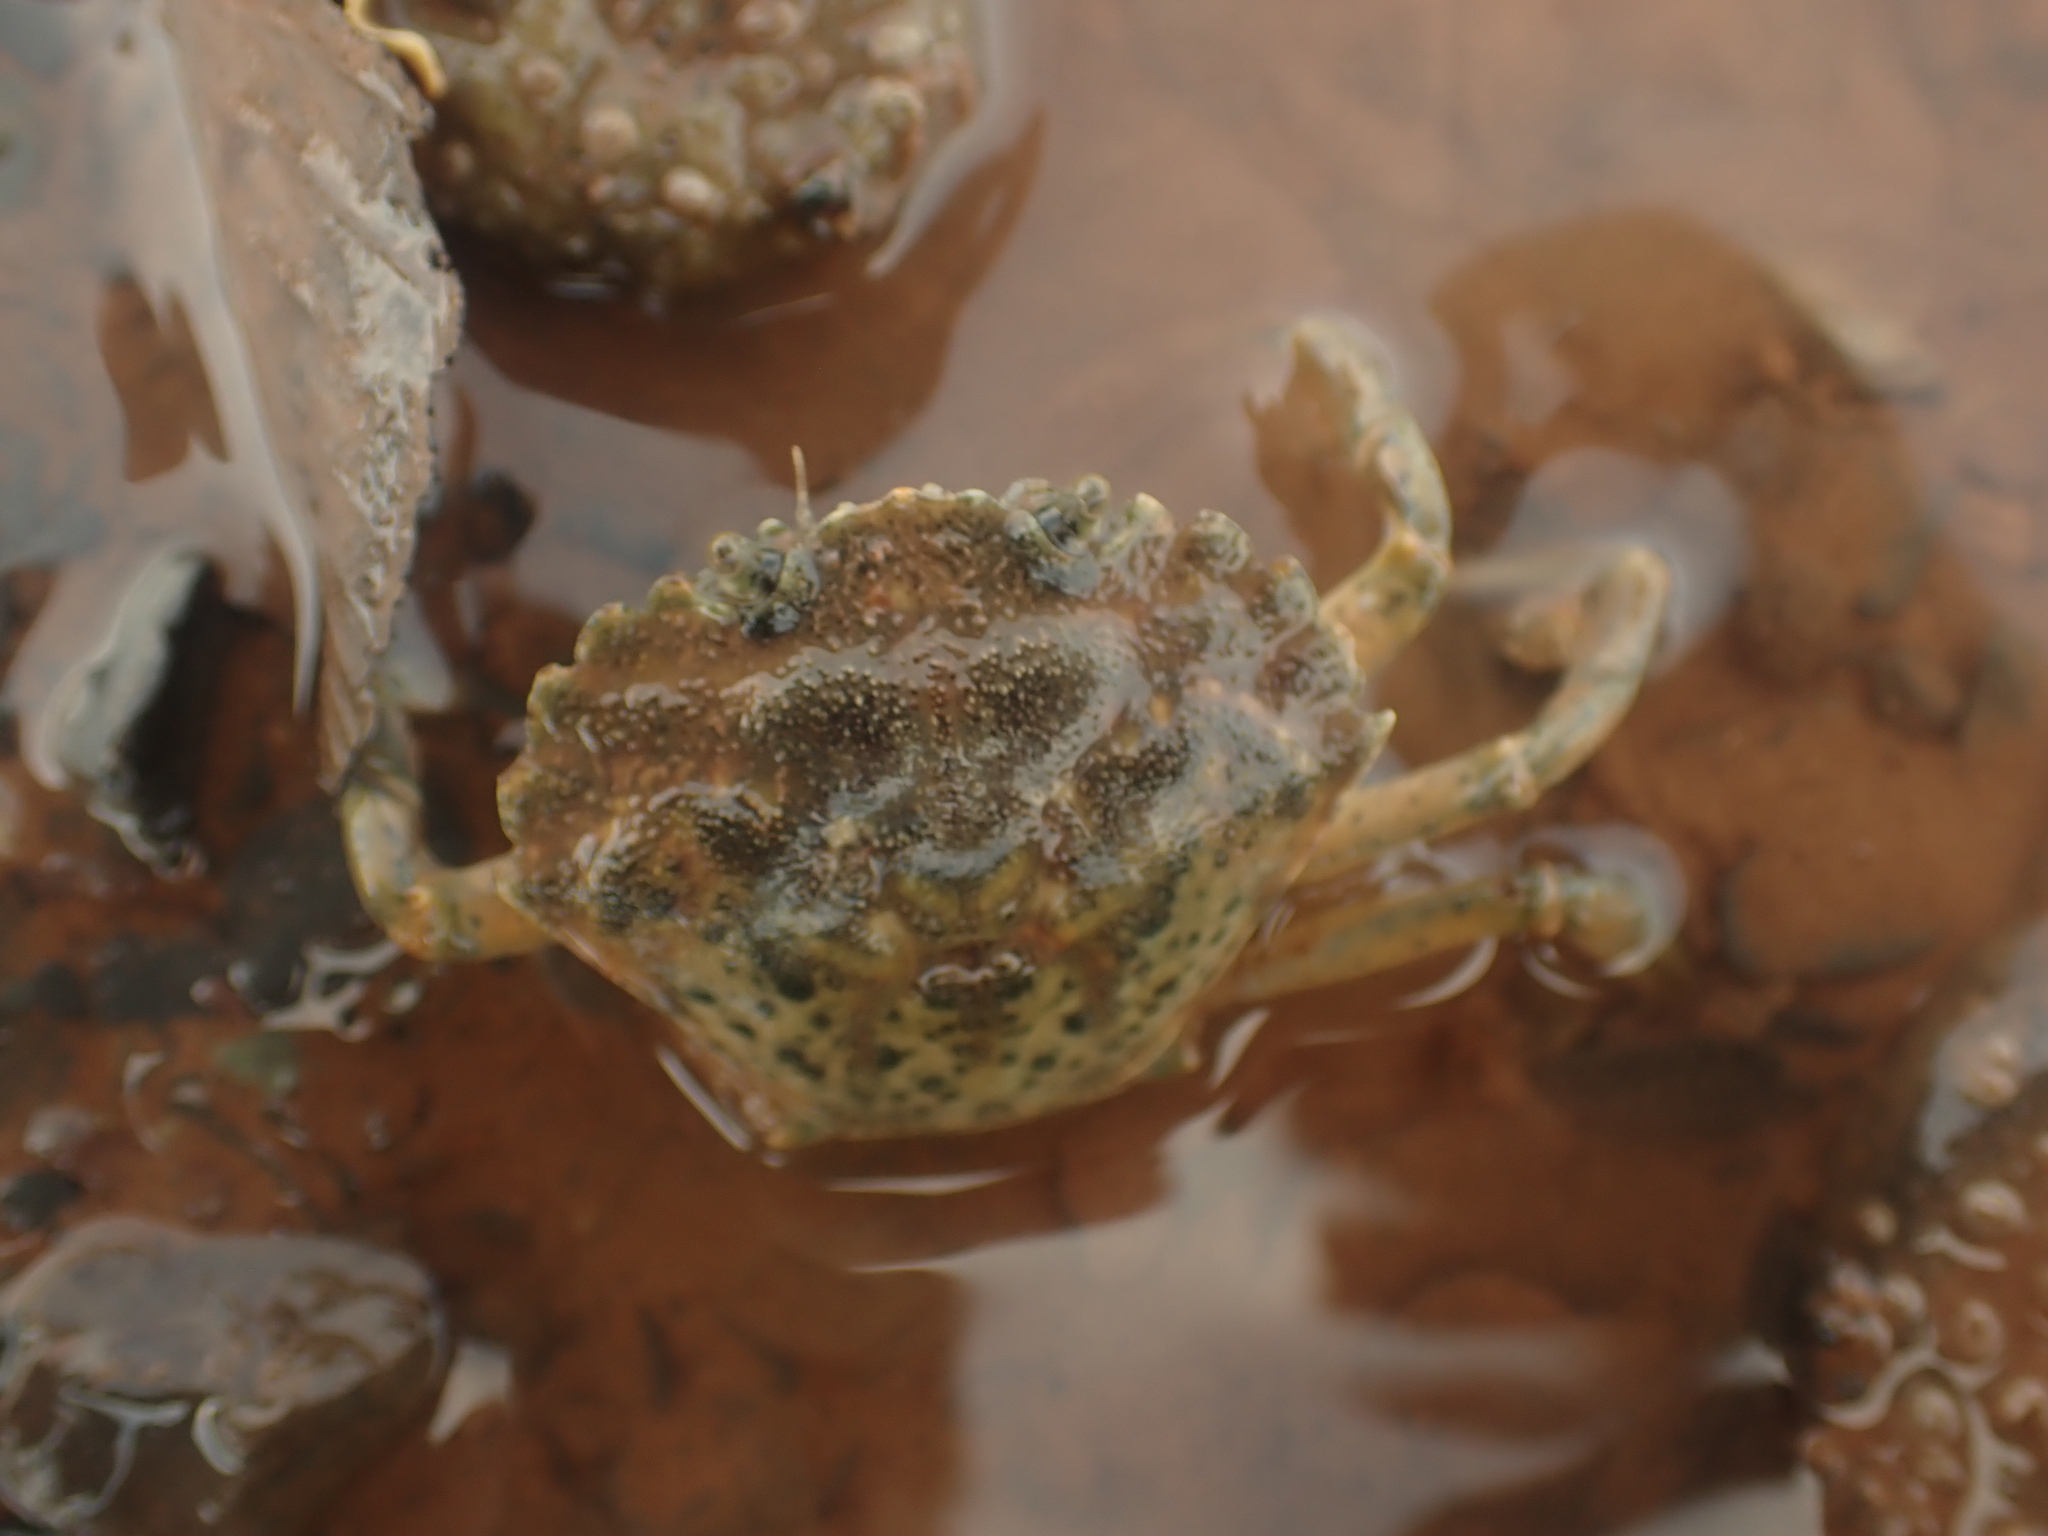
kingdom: Animalia
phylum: Arthropoda
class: Malacostraca
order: Decapoda
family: Carcinidae
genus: Carcinus
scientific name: Carcinus maenas
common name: European green crab
